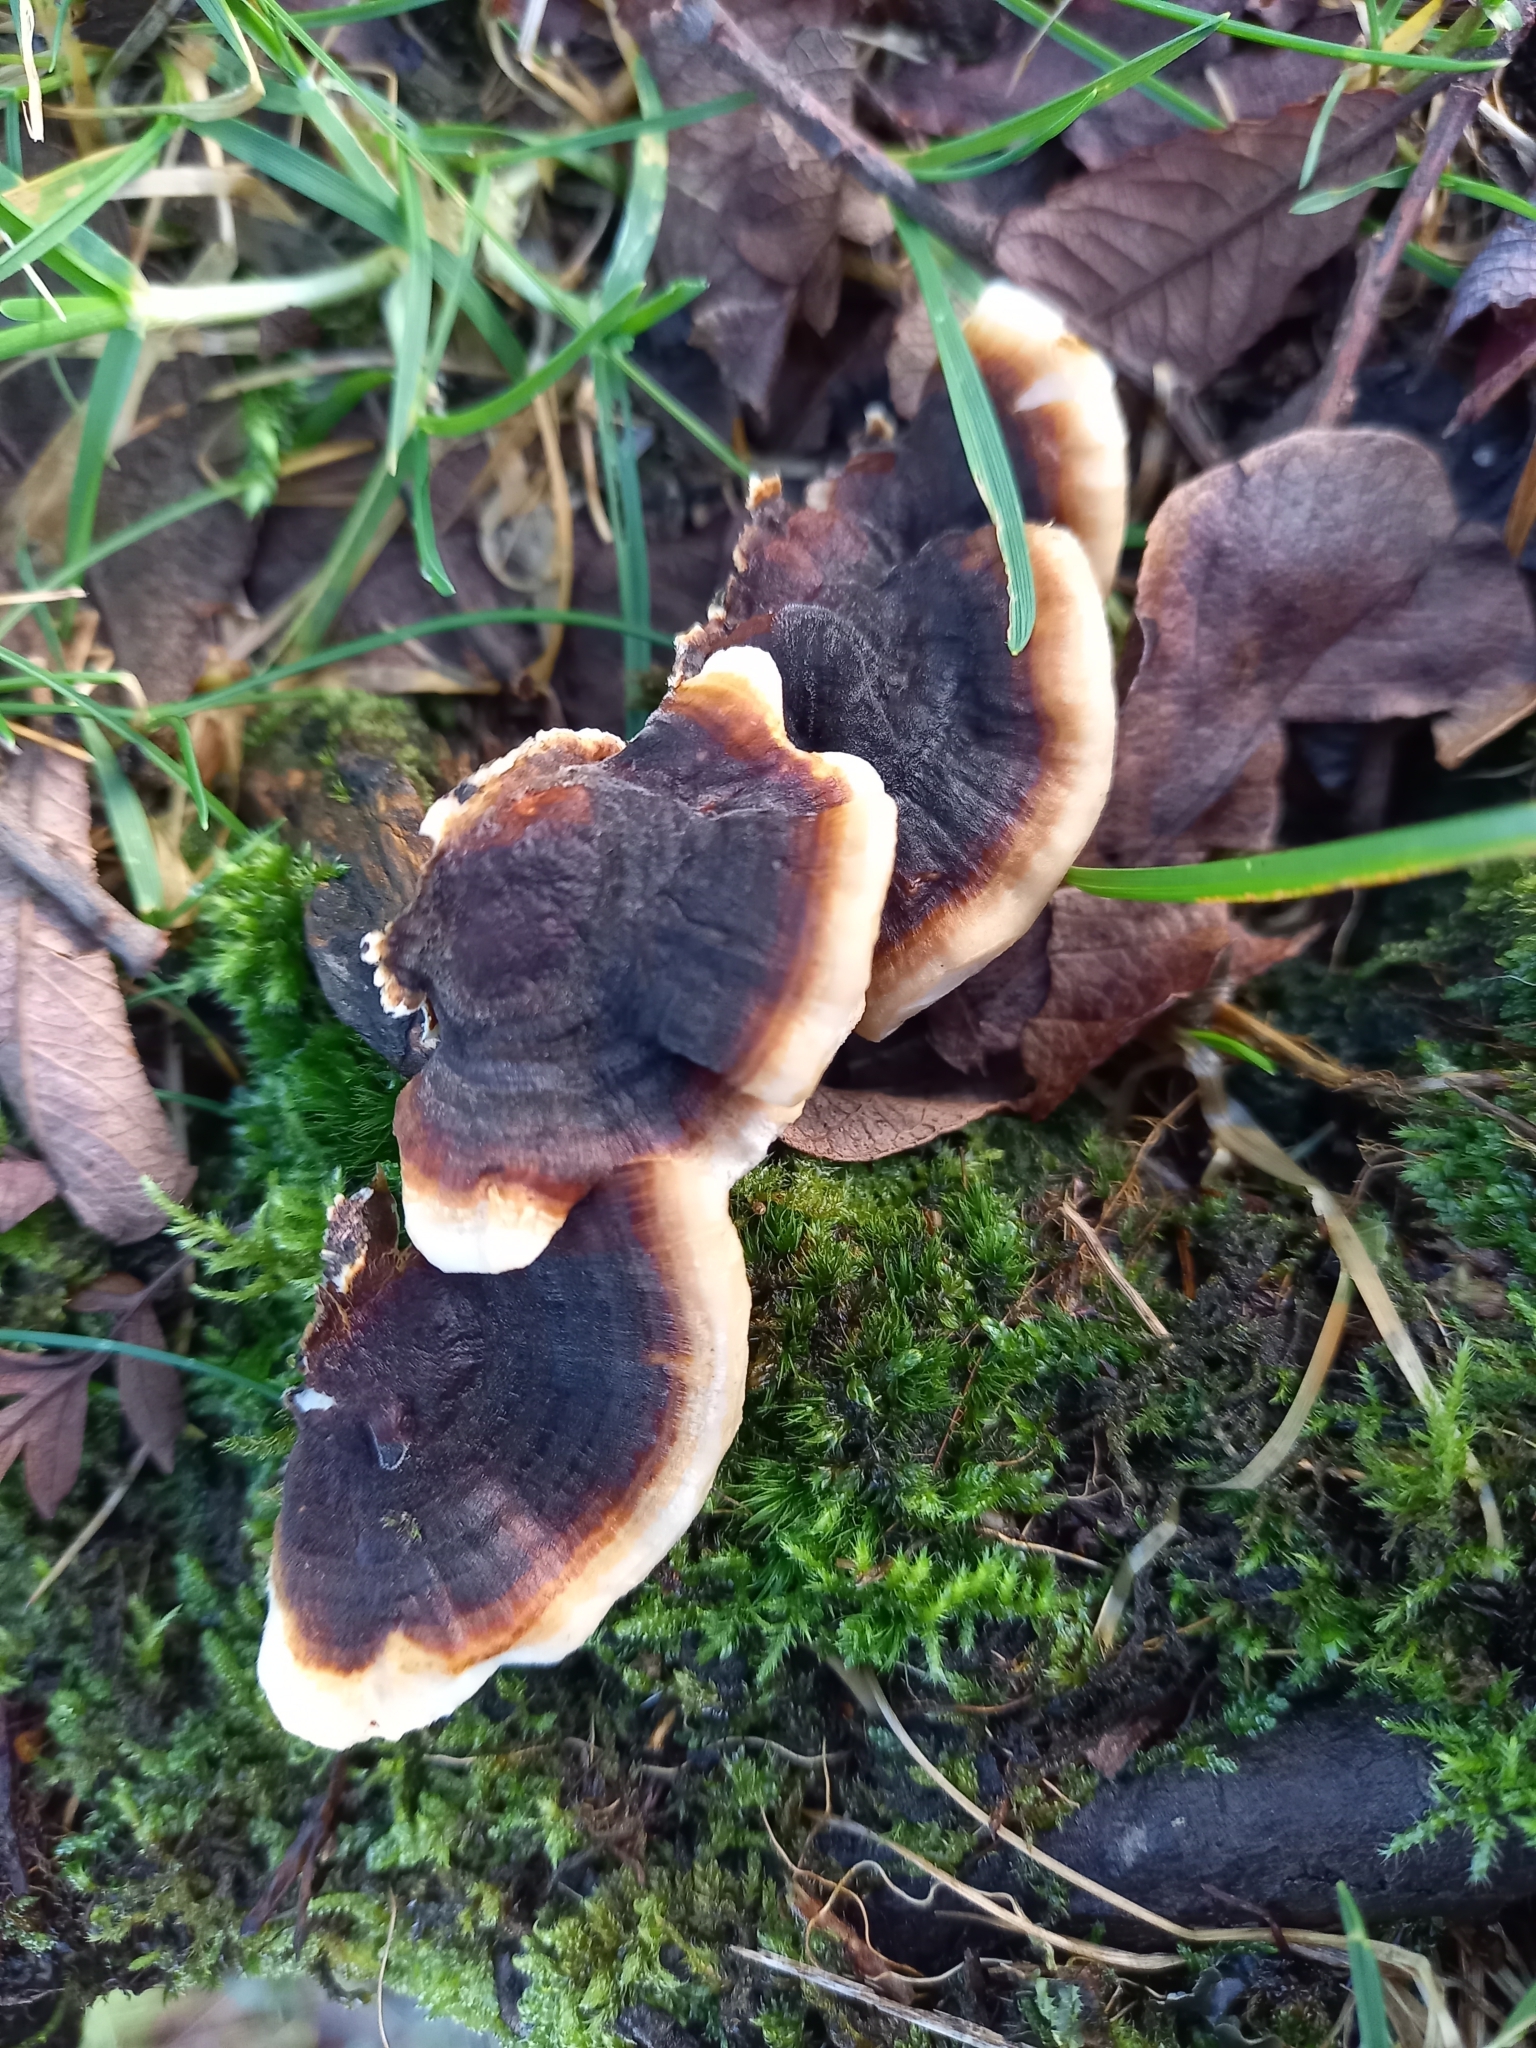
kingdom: Fungi
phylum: Basidiomycota
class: Agaricomycetes
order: Polyporales
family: Polyporaceae
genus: Trametes
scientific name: Trametes versicolor
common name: Turkeytail
